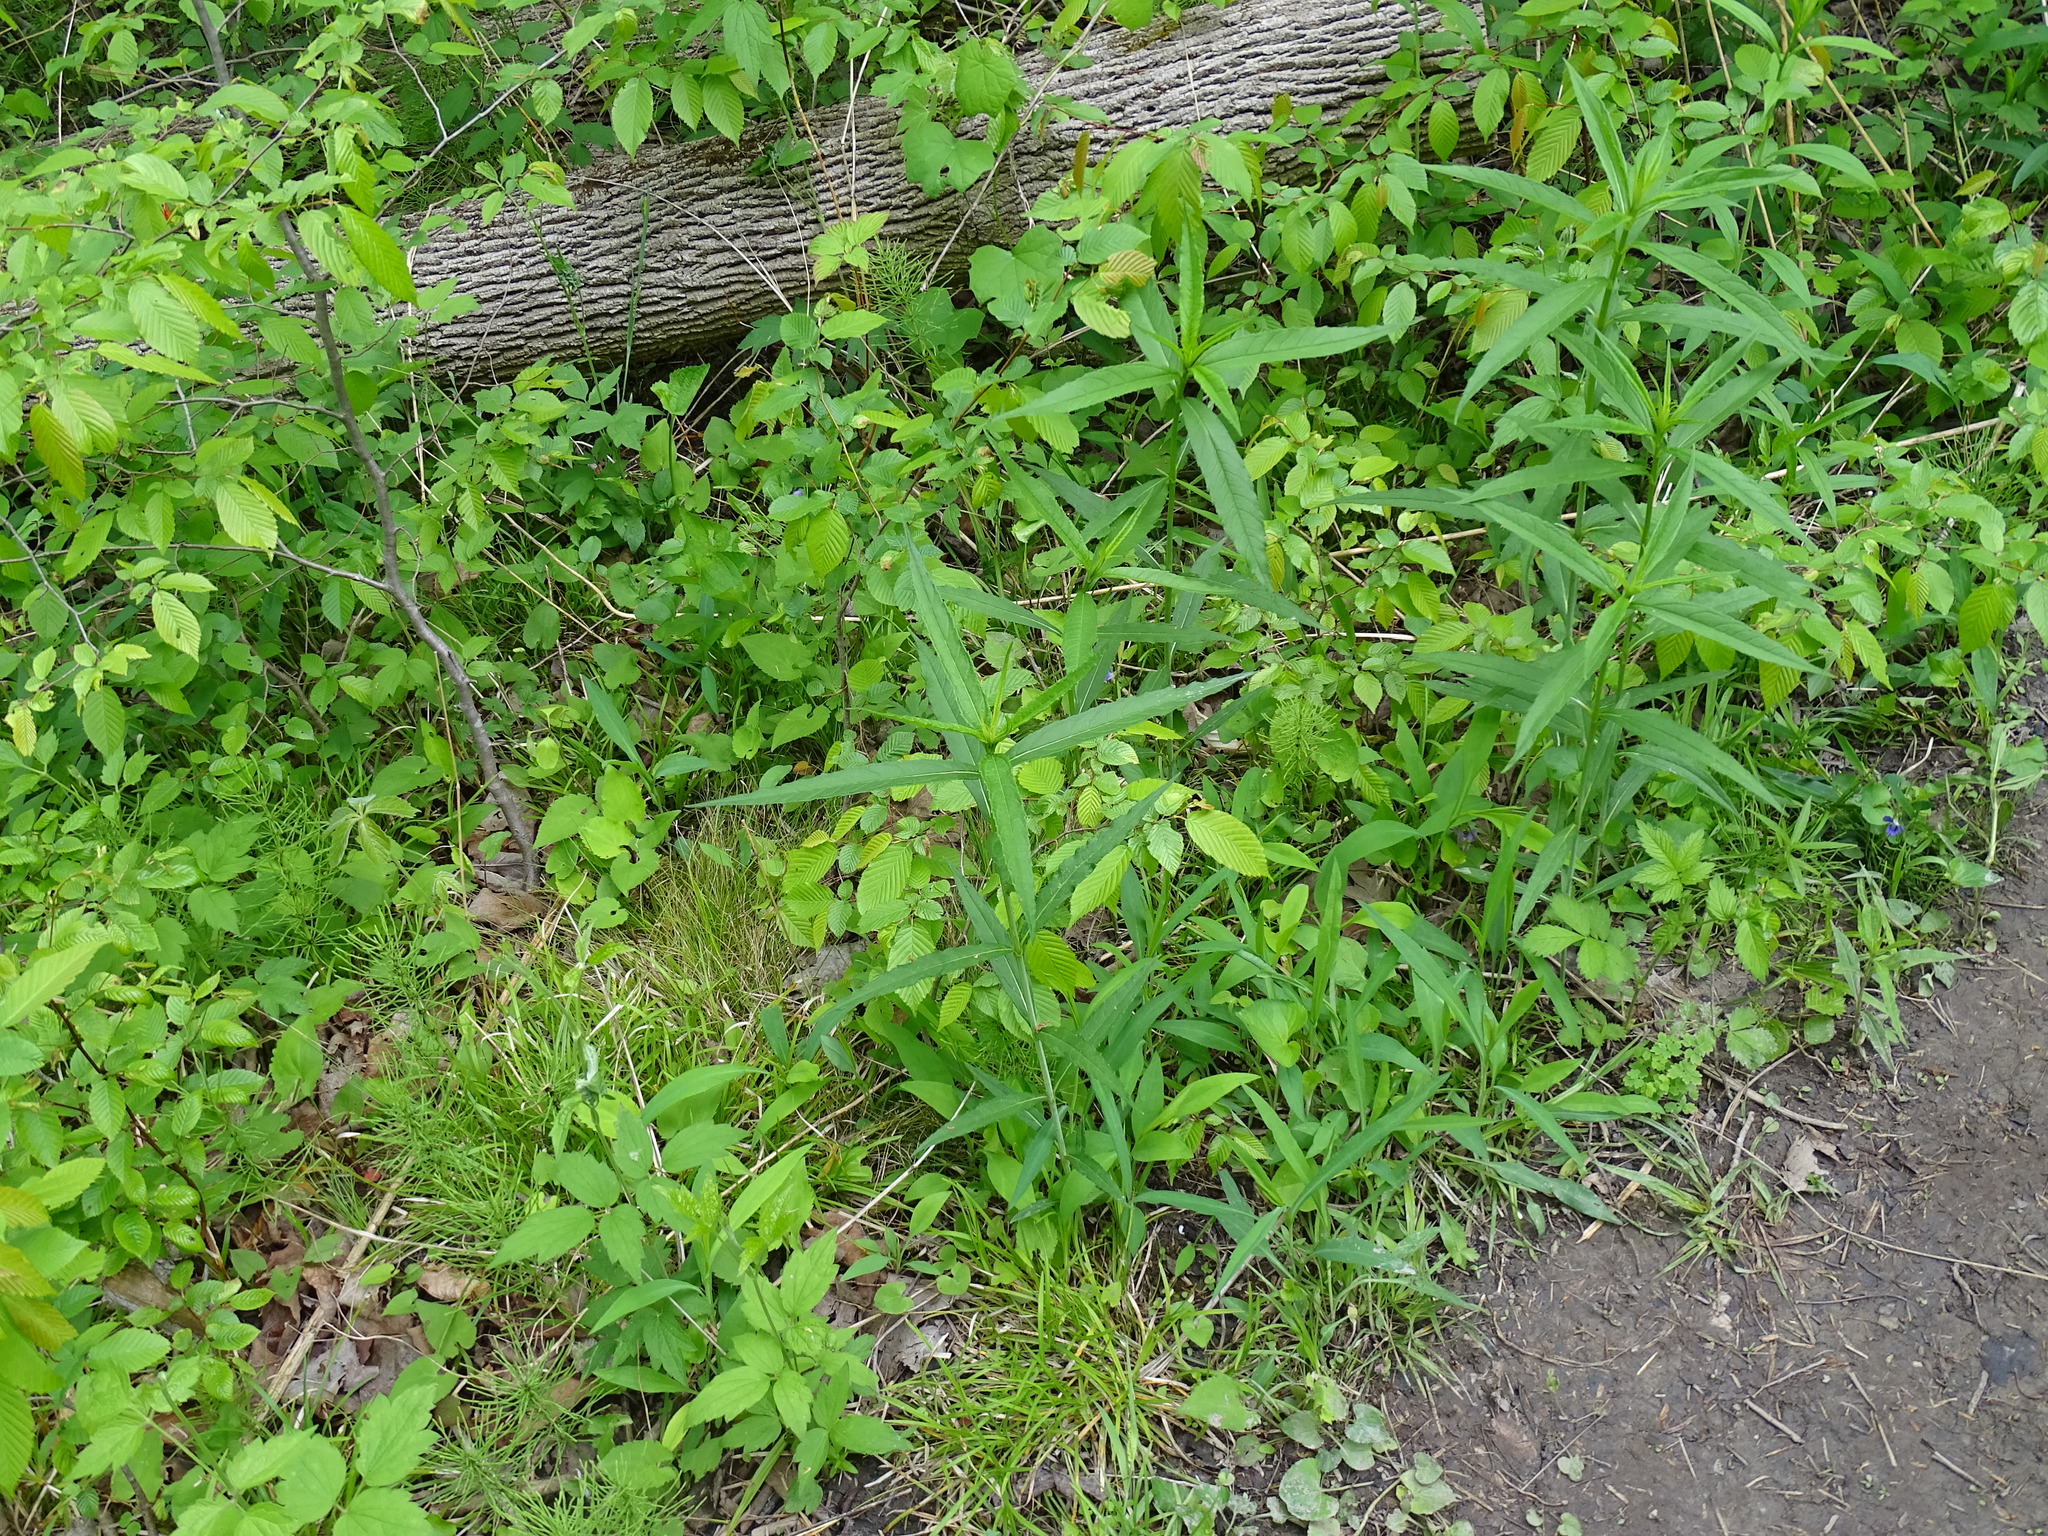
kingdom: Plantae
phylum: Tracheophyta
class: Magnoliopsida
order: Lamiales
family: Plantaginaceae
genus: Chelone
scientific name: Chelone glabra
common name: Snakehead
